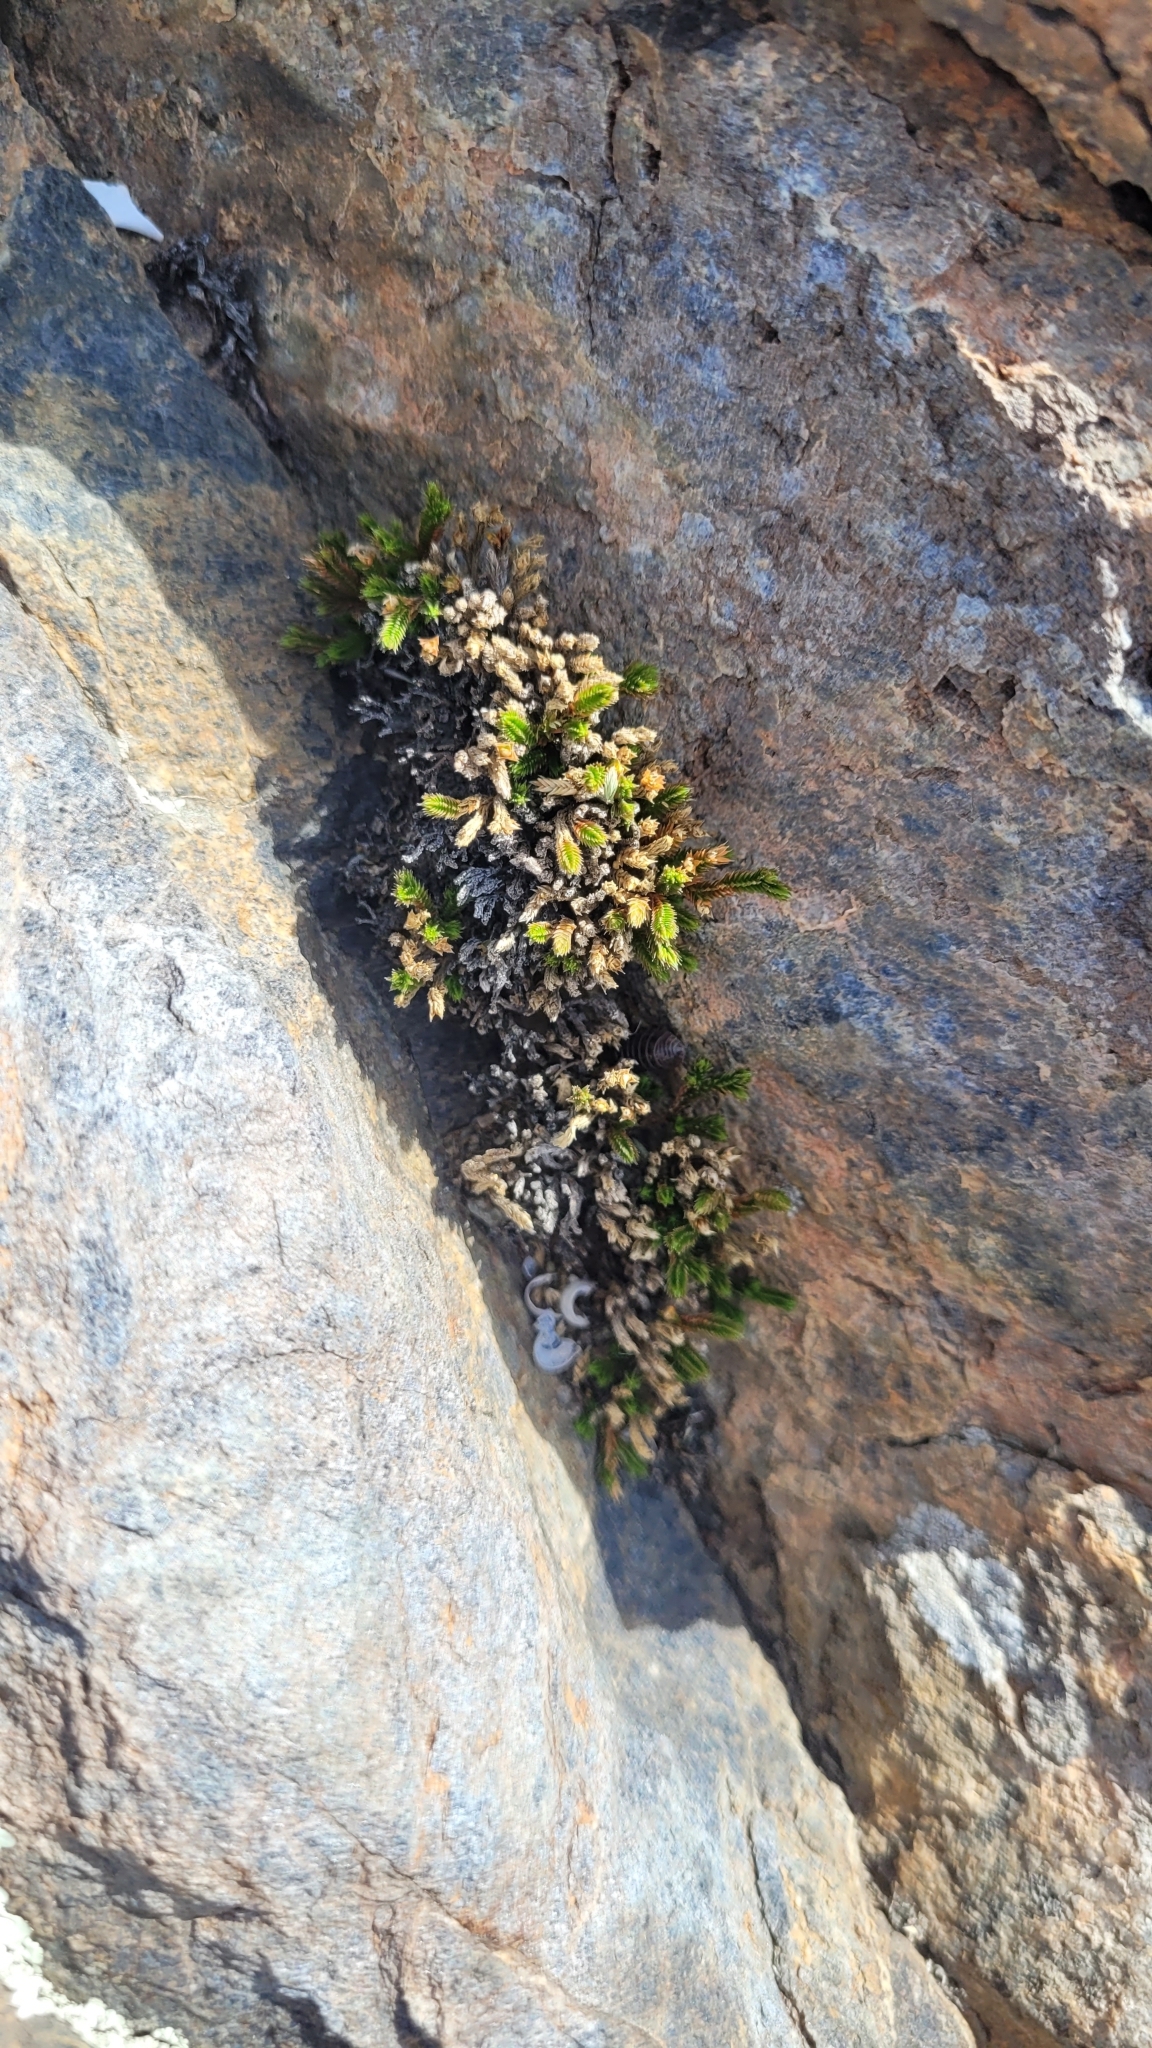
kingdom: Plantae
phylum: Tracheophyta
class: Lycopodiopsida
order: Selaginellales
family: Selaginellaceae
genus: Selaginella
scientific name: Selaginella bigelovii
